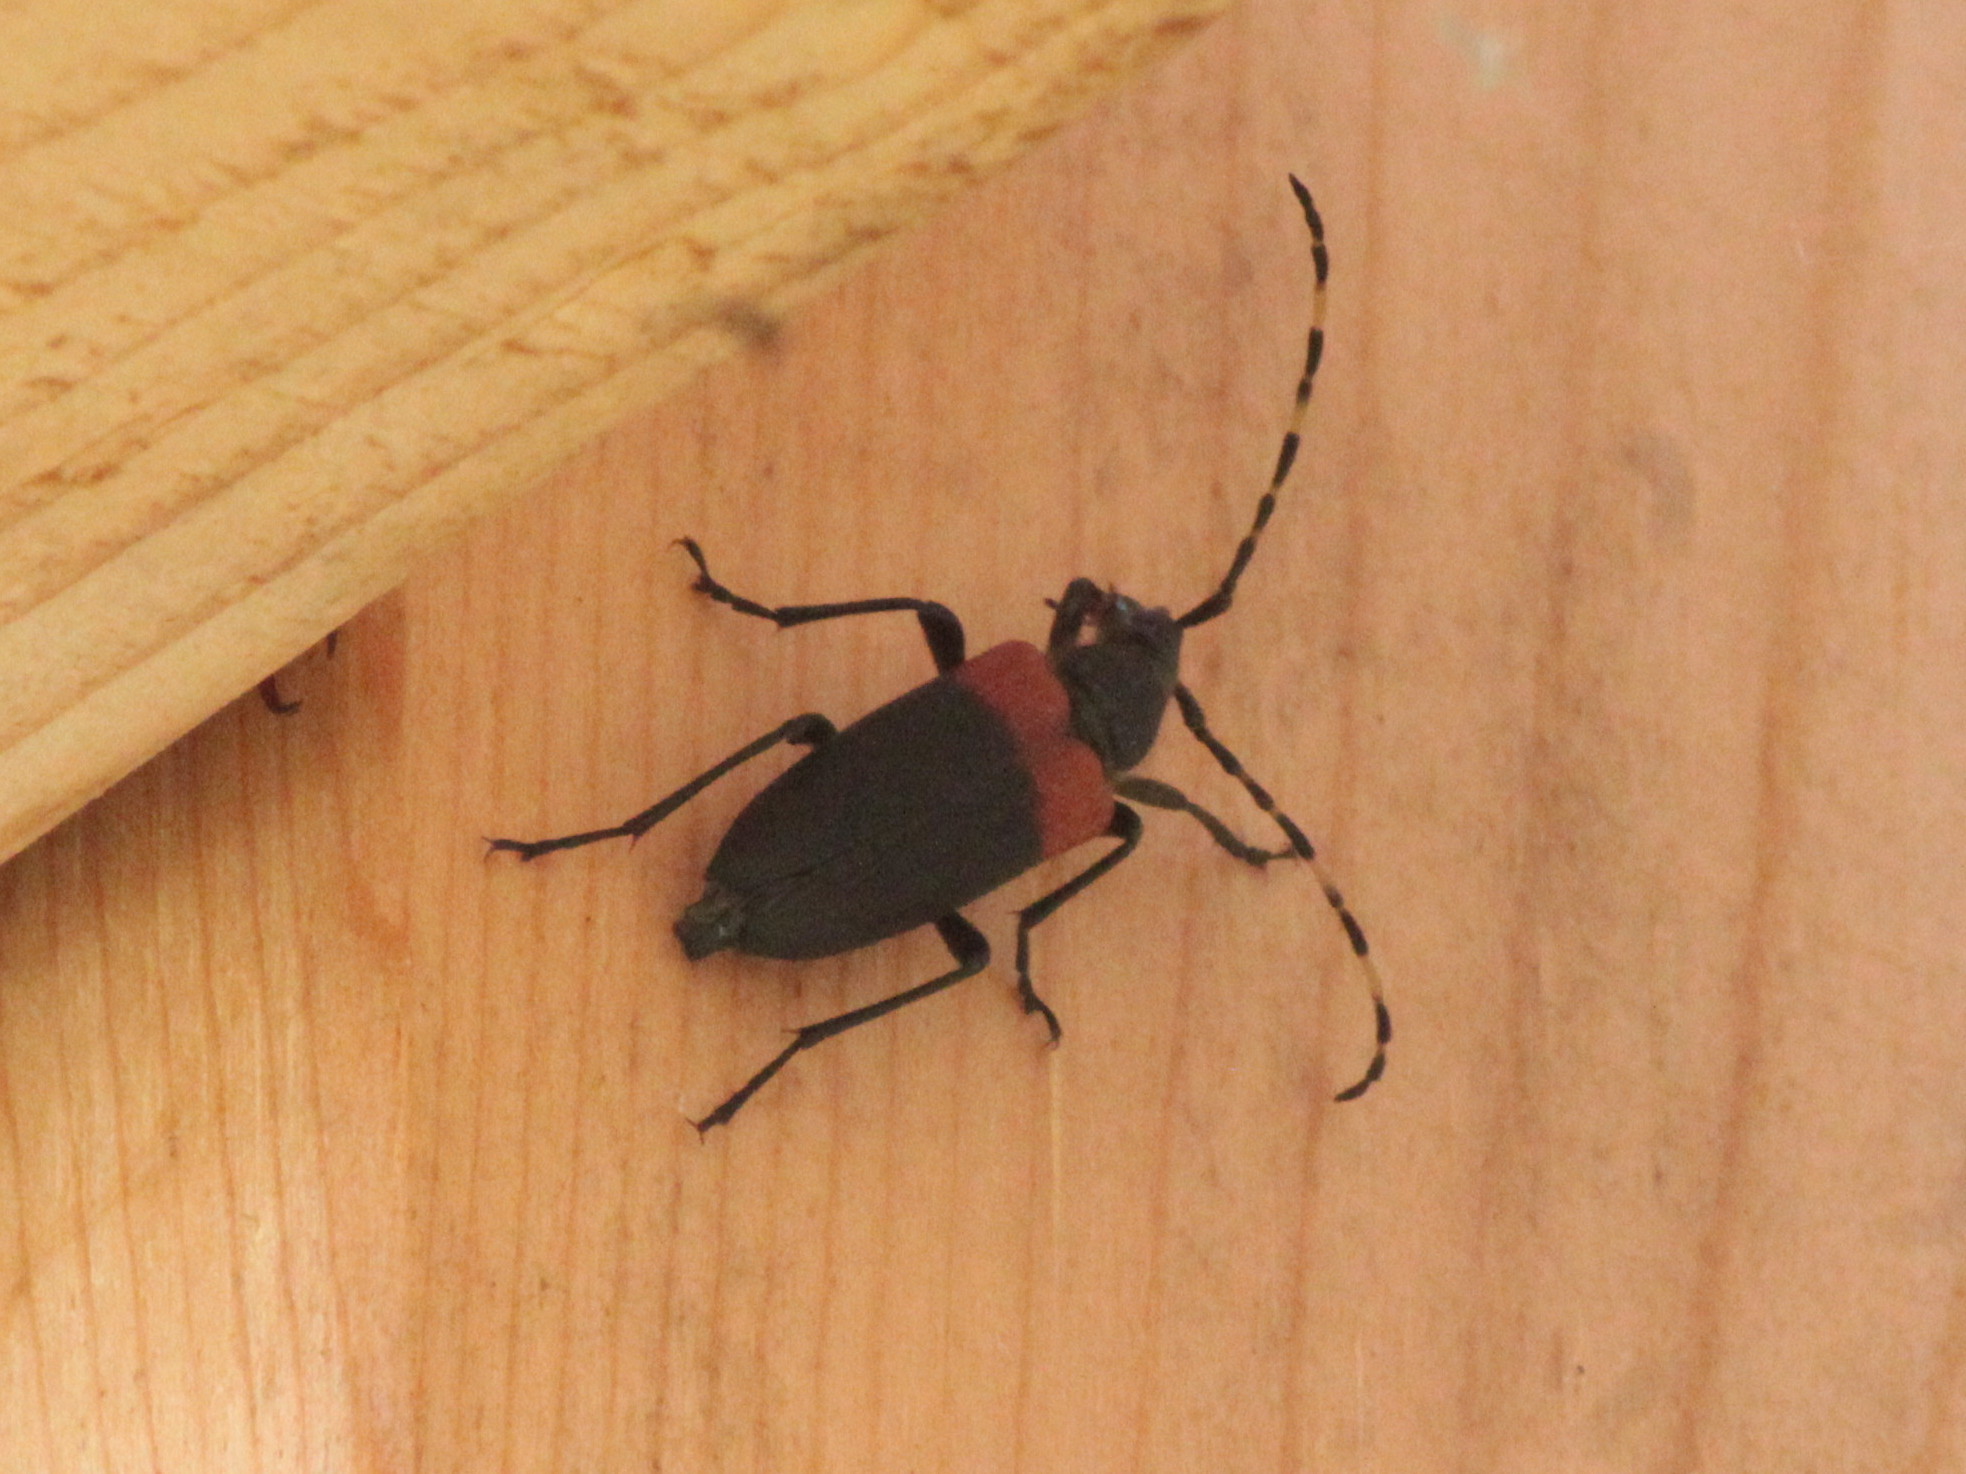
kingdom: Animalia
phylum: Arthropoda
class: Insecta
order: Coleoptera
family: Cerambycidae
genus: Stictoleptura
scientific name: Stictoleptura canadensis
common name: Red-shouldered pine borer
